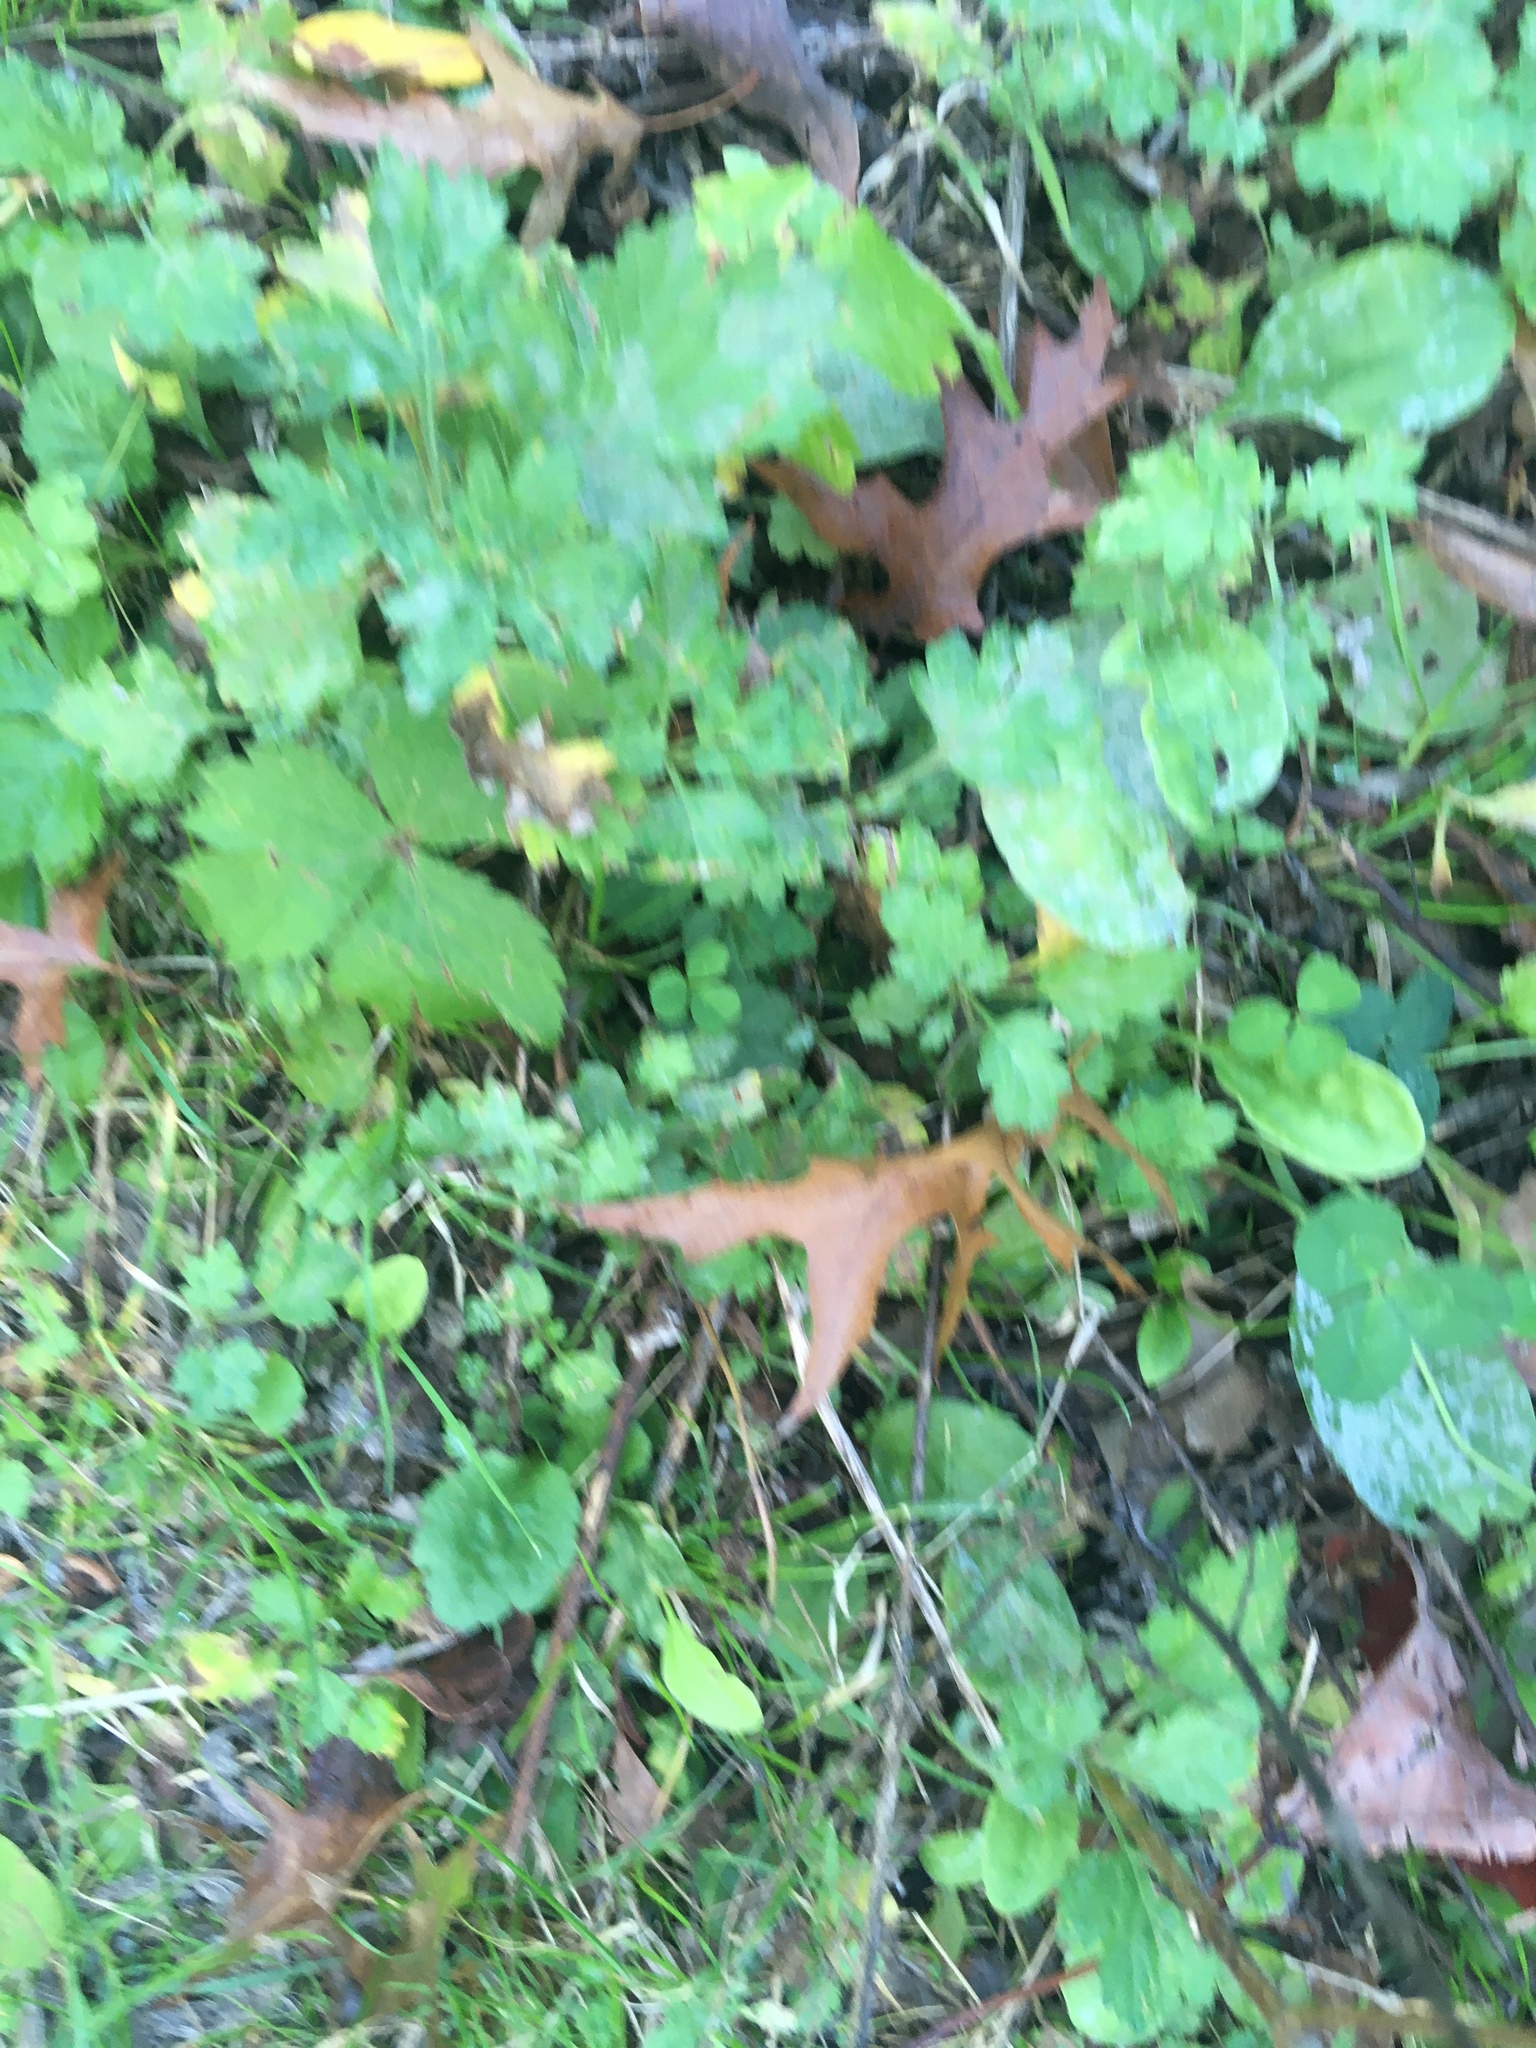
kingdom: Plantae
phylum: Tracheophyta
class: Magnoliopsida
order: Asterales
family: Asteraceae
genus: Artemisia
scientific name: Artemisia vulgaris
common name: Mugwort
